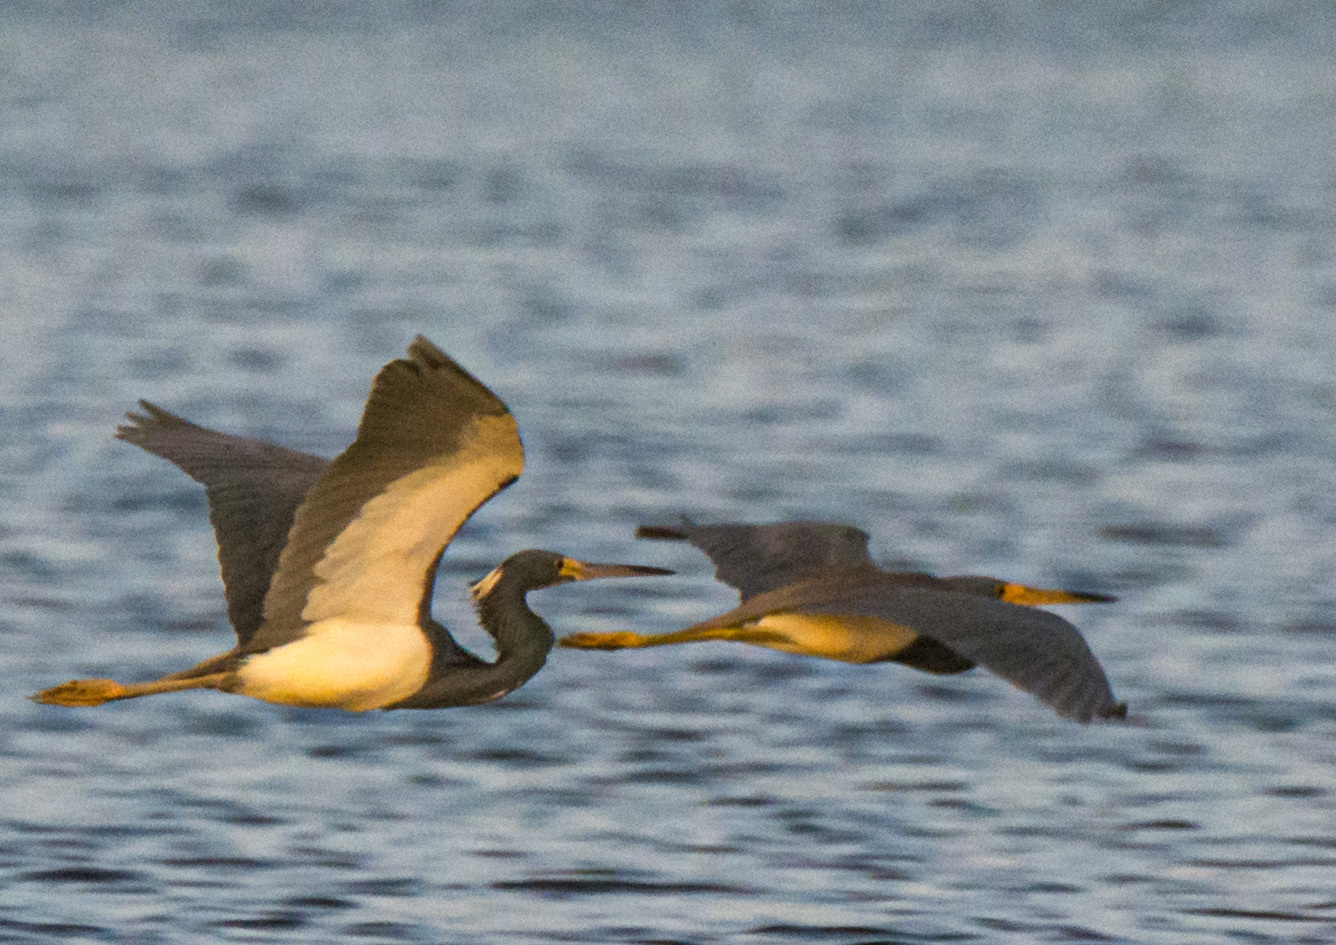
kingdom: Animalia
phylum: Chordata
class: Aves
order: Pelecaniformes
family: Ardeidae
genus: Egretta
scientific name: Egretta tricolor
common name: Tricolored heron
